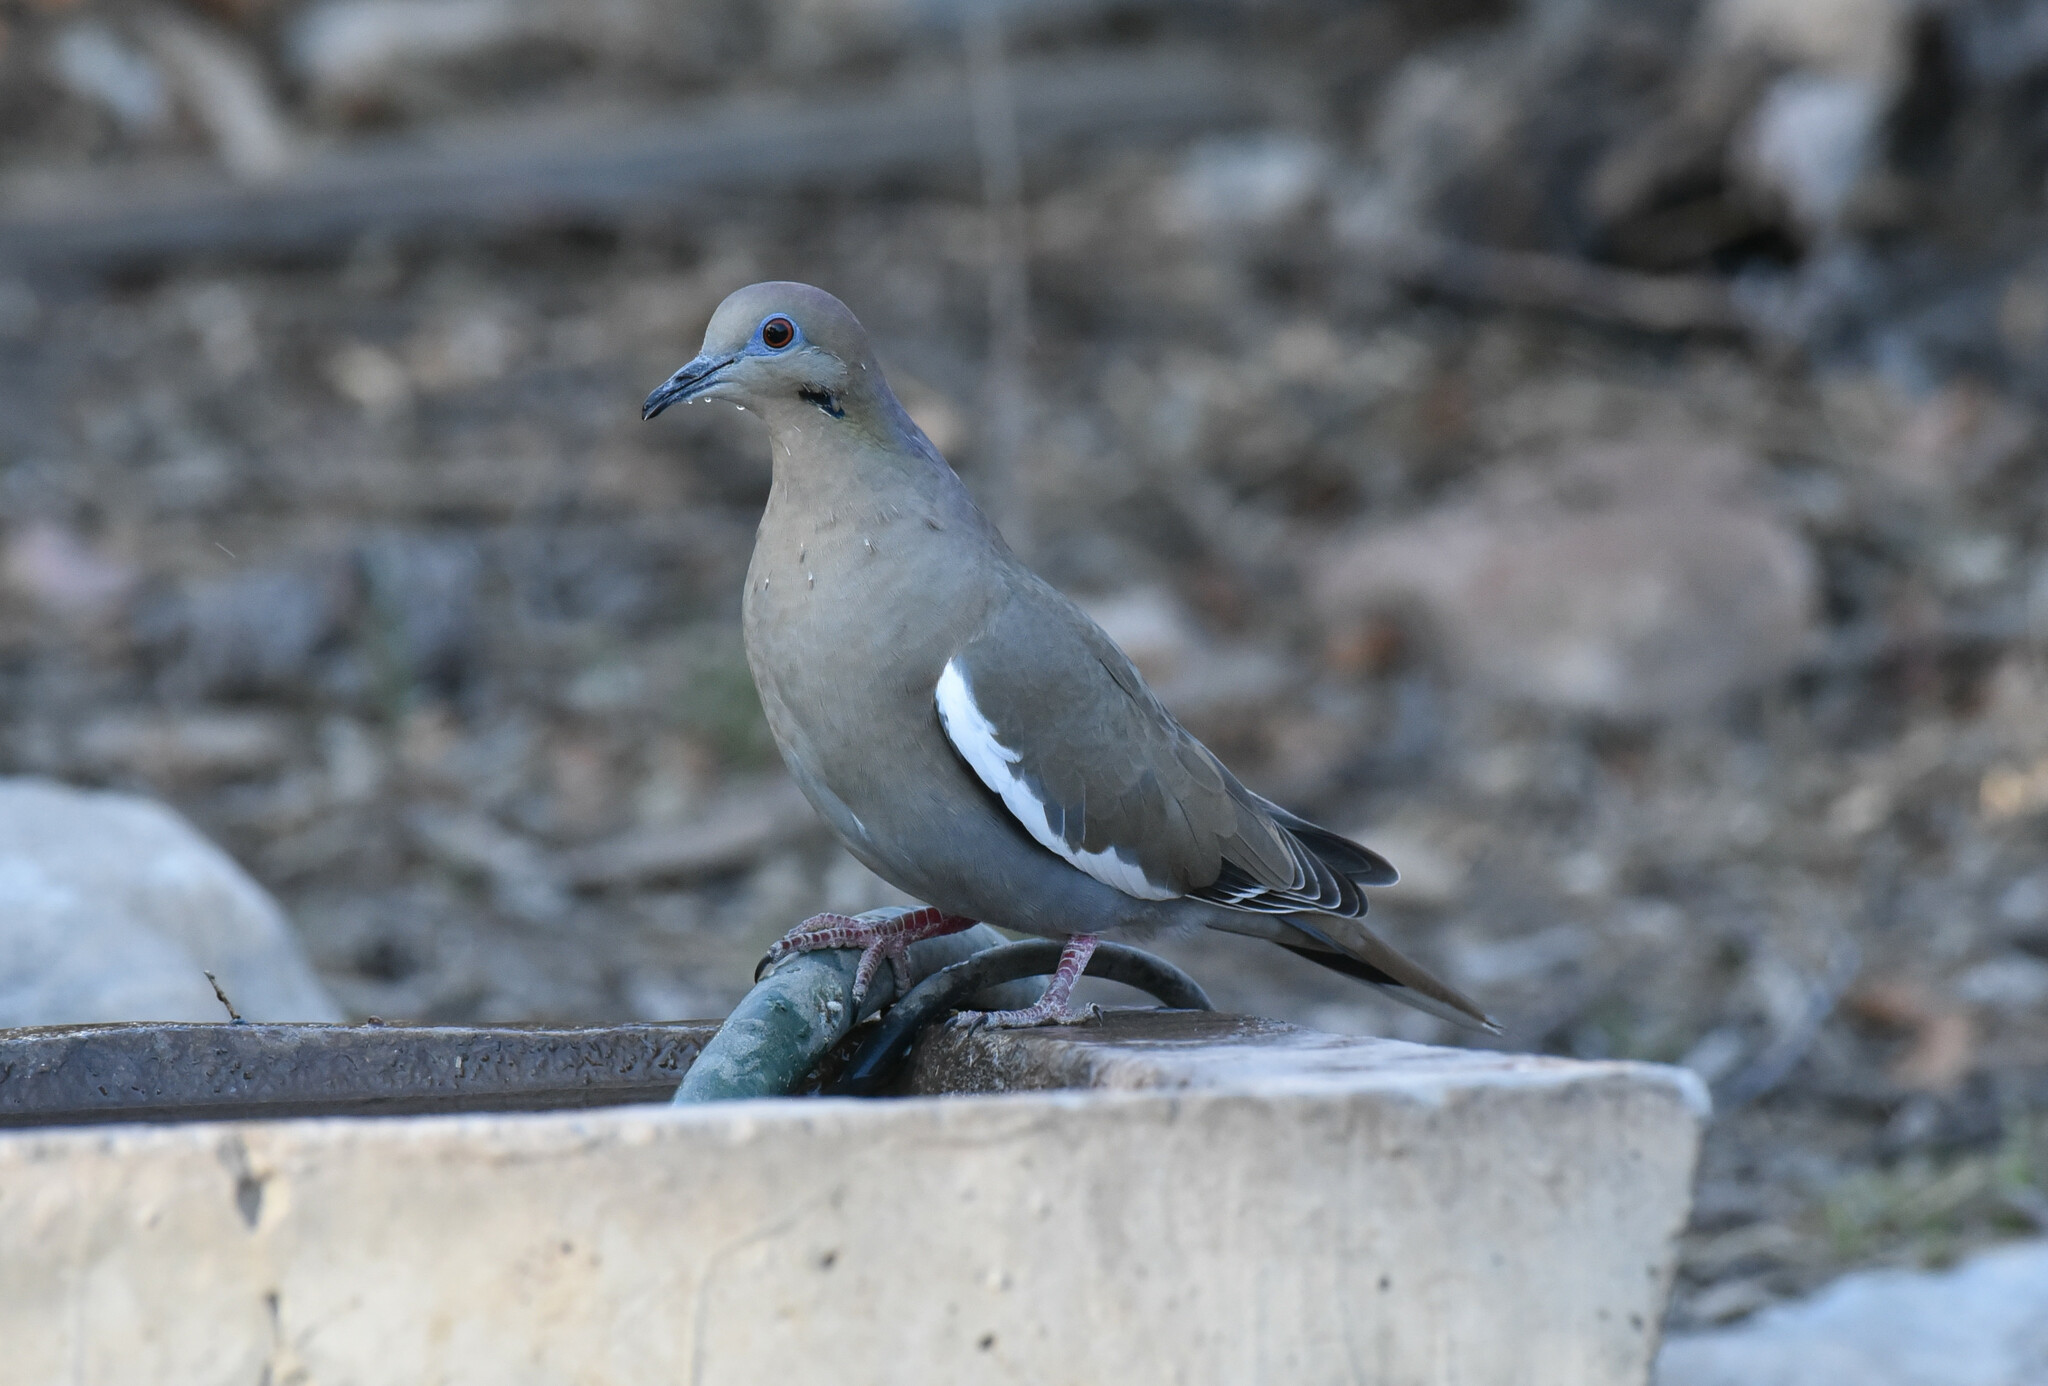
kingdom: Animalia
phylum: Chordata
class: Aves
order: Columbiformes
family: Columbidae
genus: Zenaida
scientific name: Zenaida asiatica
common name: White-winged dove
